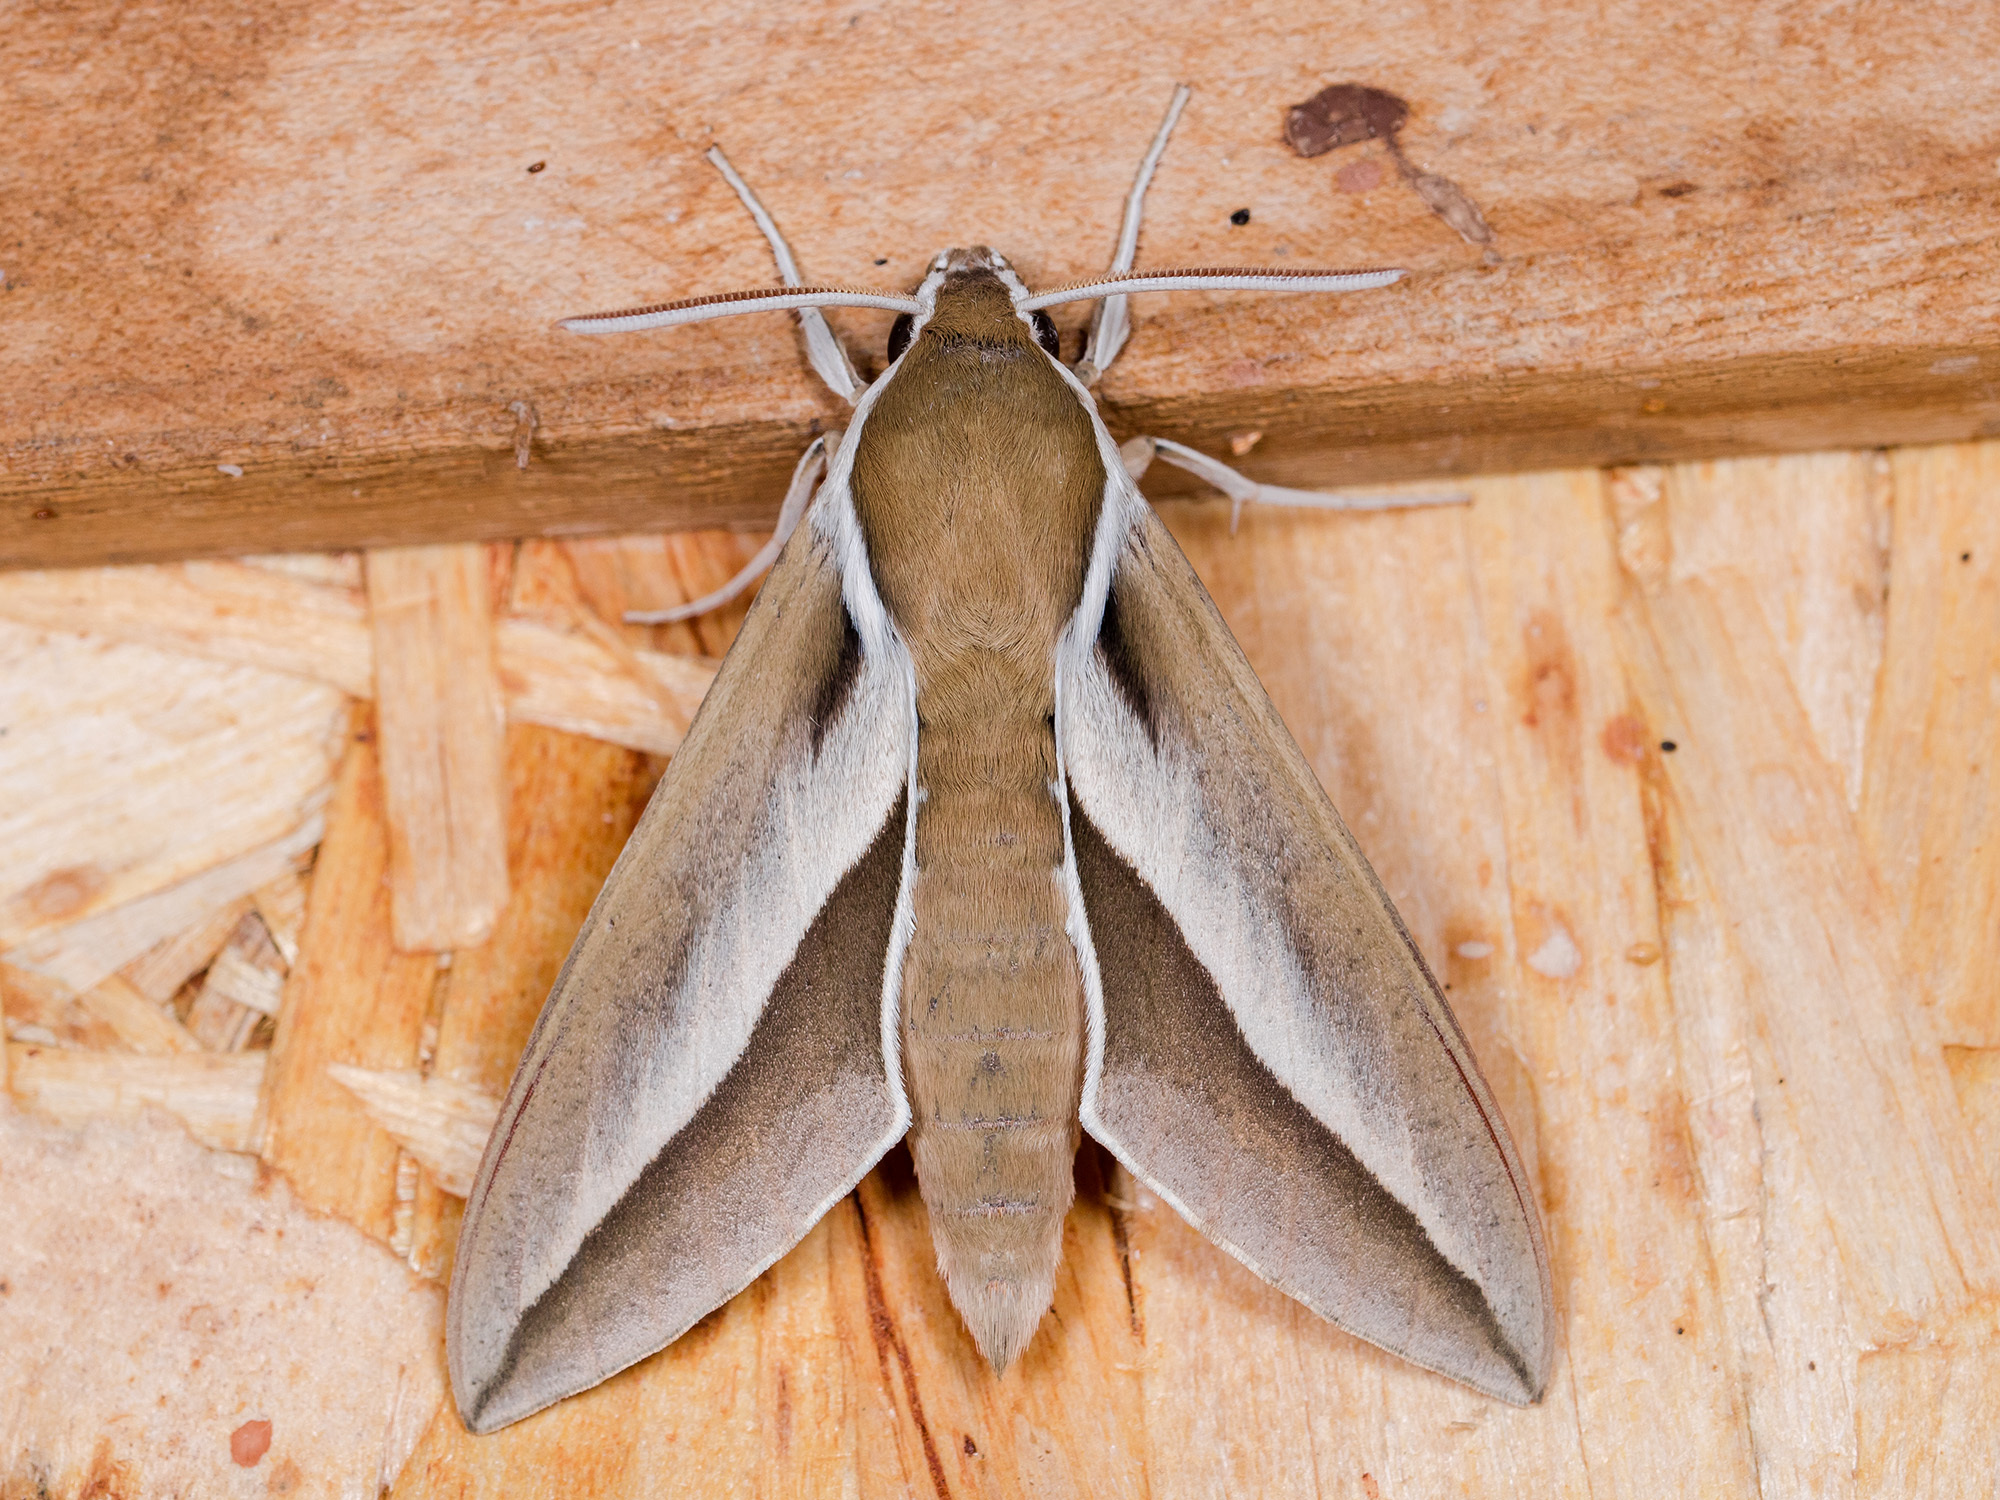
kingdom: Animalia
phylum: Arthropoda
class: Insecta
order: Lepidoptera
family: Sphingidae
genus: Hyles
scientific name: Hyles hippophaes
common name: Seathorn hawk-moth
